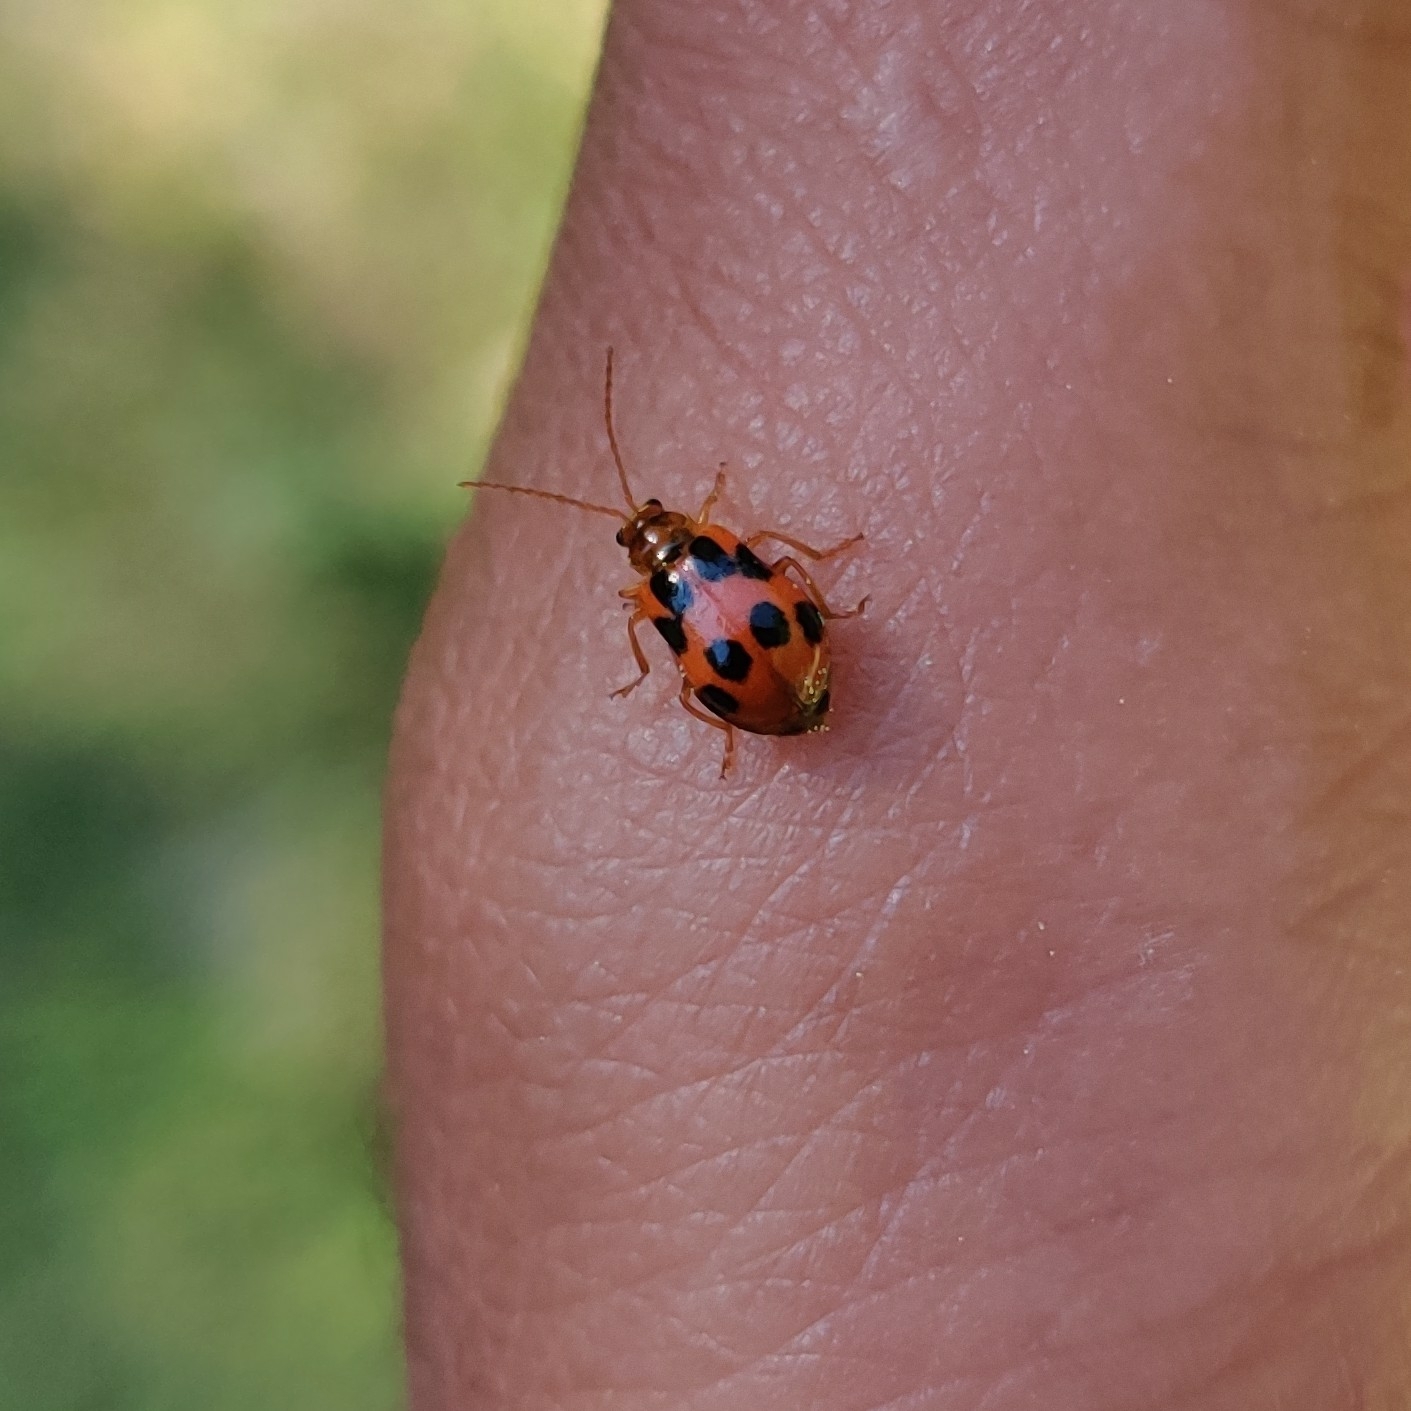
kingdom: Animalia
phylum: Arthropoda
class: Insecta
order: Coleoptera
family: Chrysomelidae
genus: Paridea
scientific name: Paridea
